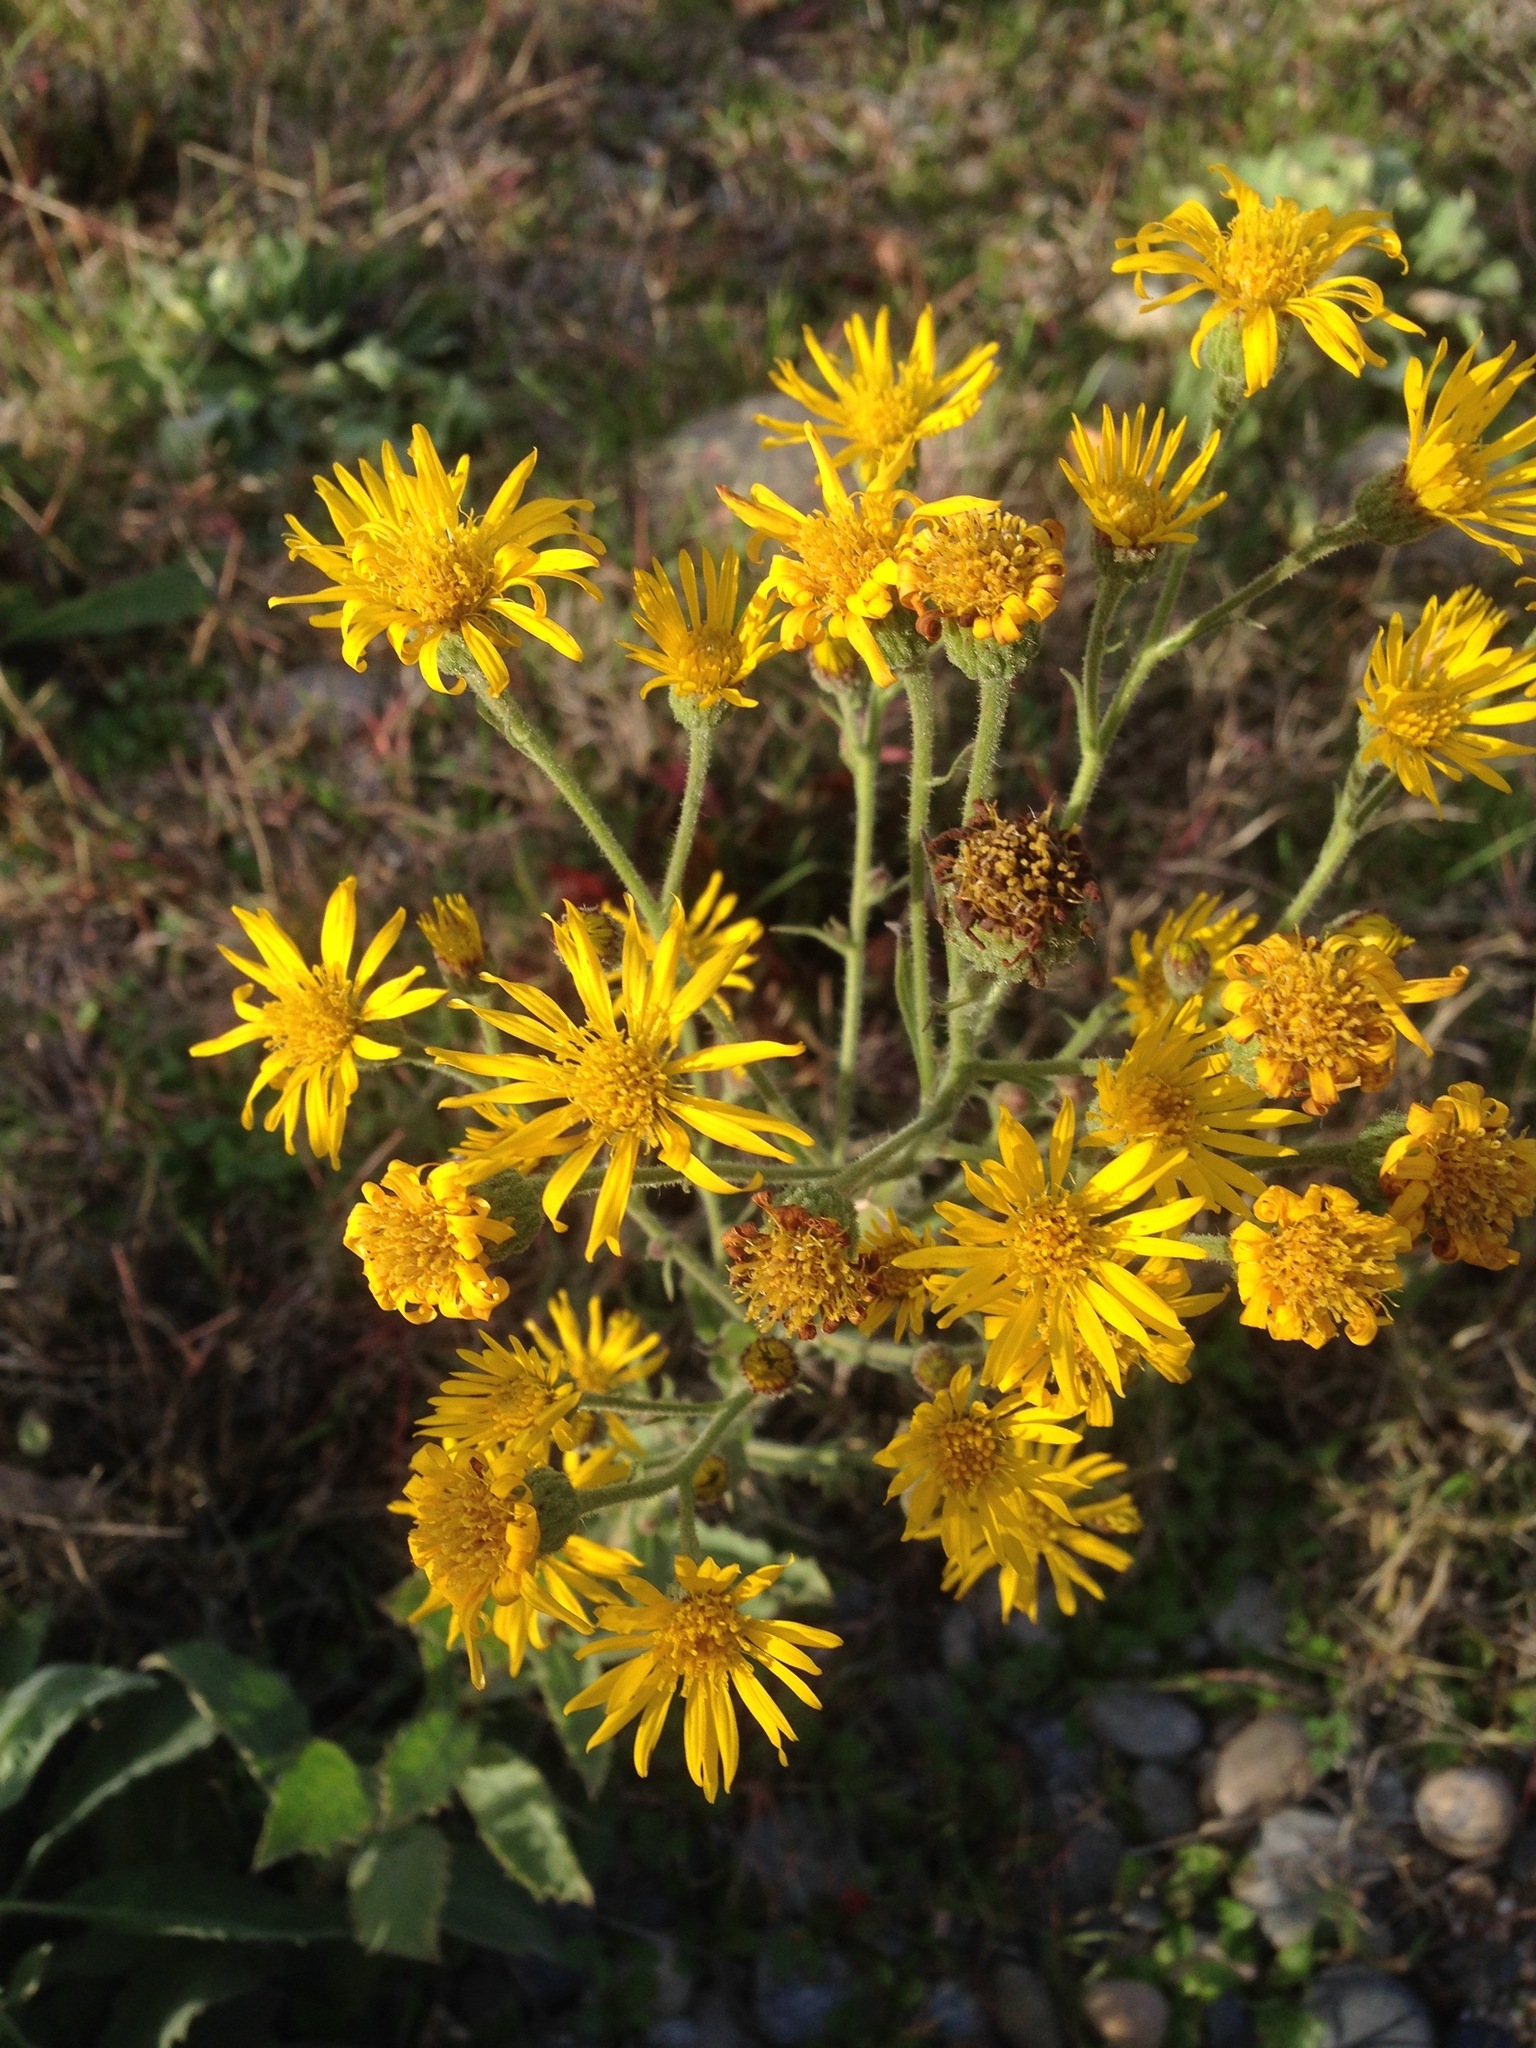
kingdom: Plantae
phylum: Tracheophyta
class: Magnoliopsida
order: Asterales
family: Asteraceae
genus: Heterotheca
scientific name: Heterotheca grandiflora
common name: Telegraphweed
